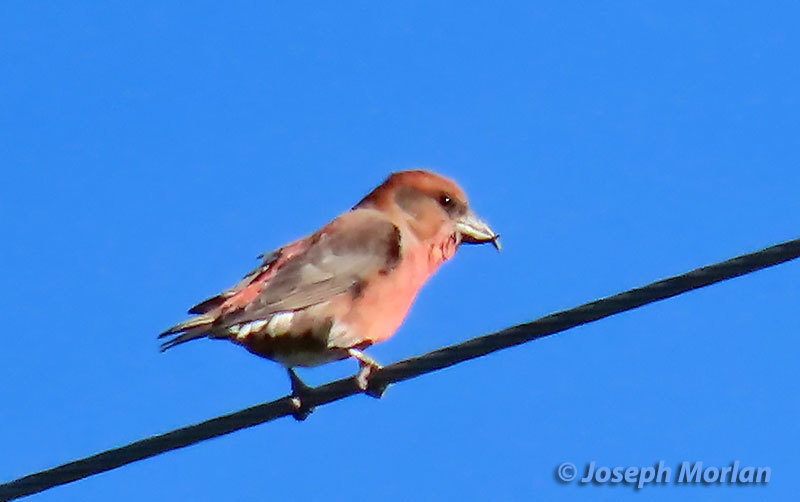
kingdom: Animalia
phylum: Chordata
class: Aves
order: Passeriformes
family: Fringillidae
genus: Loxia
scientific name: Loxia curvirostra
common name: Red crossbill
